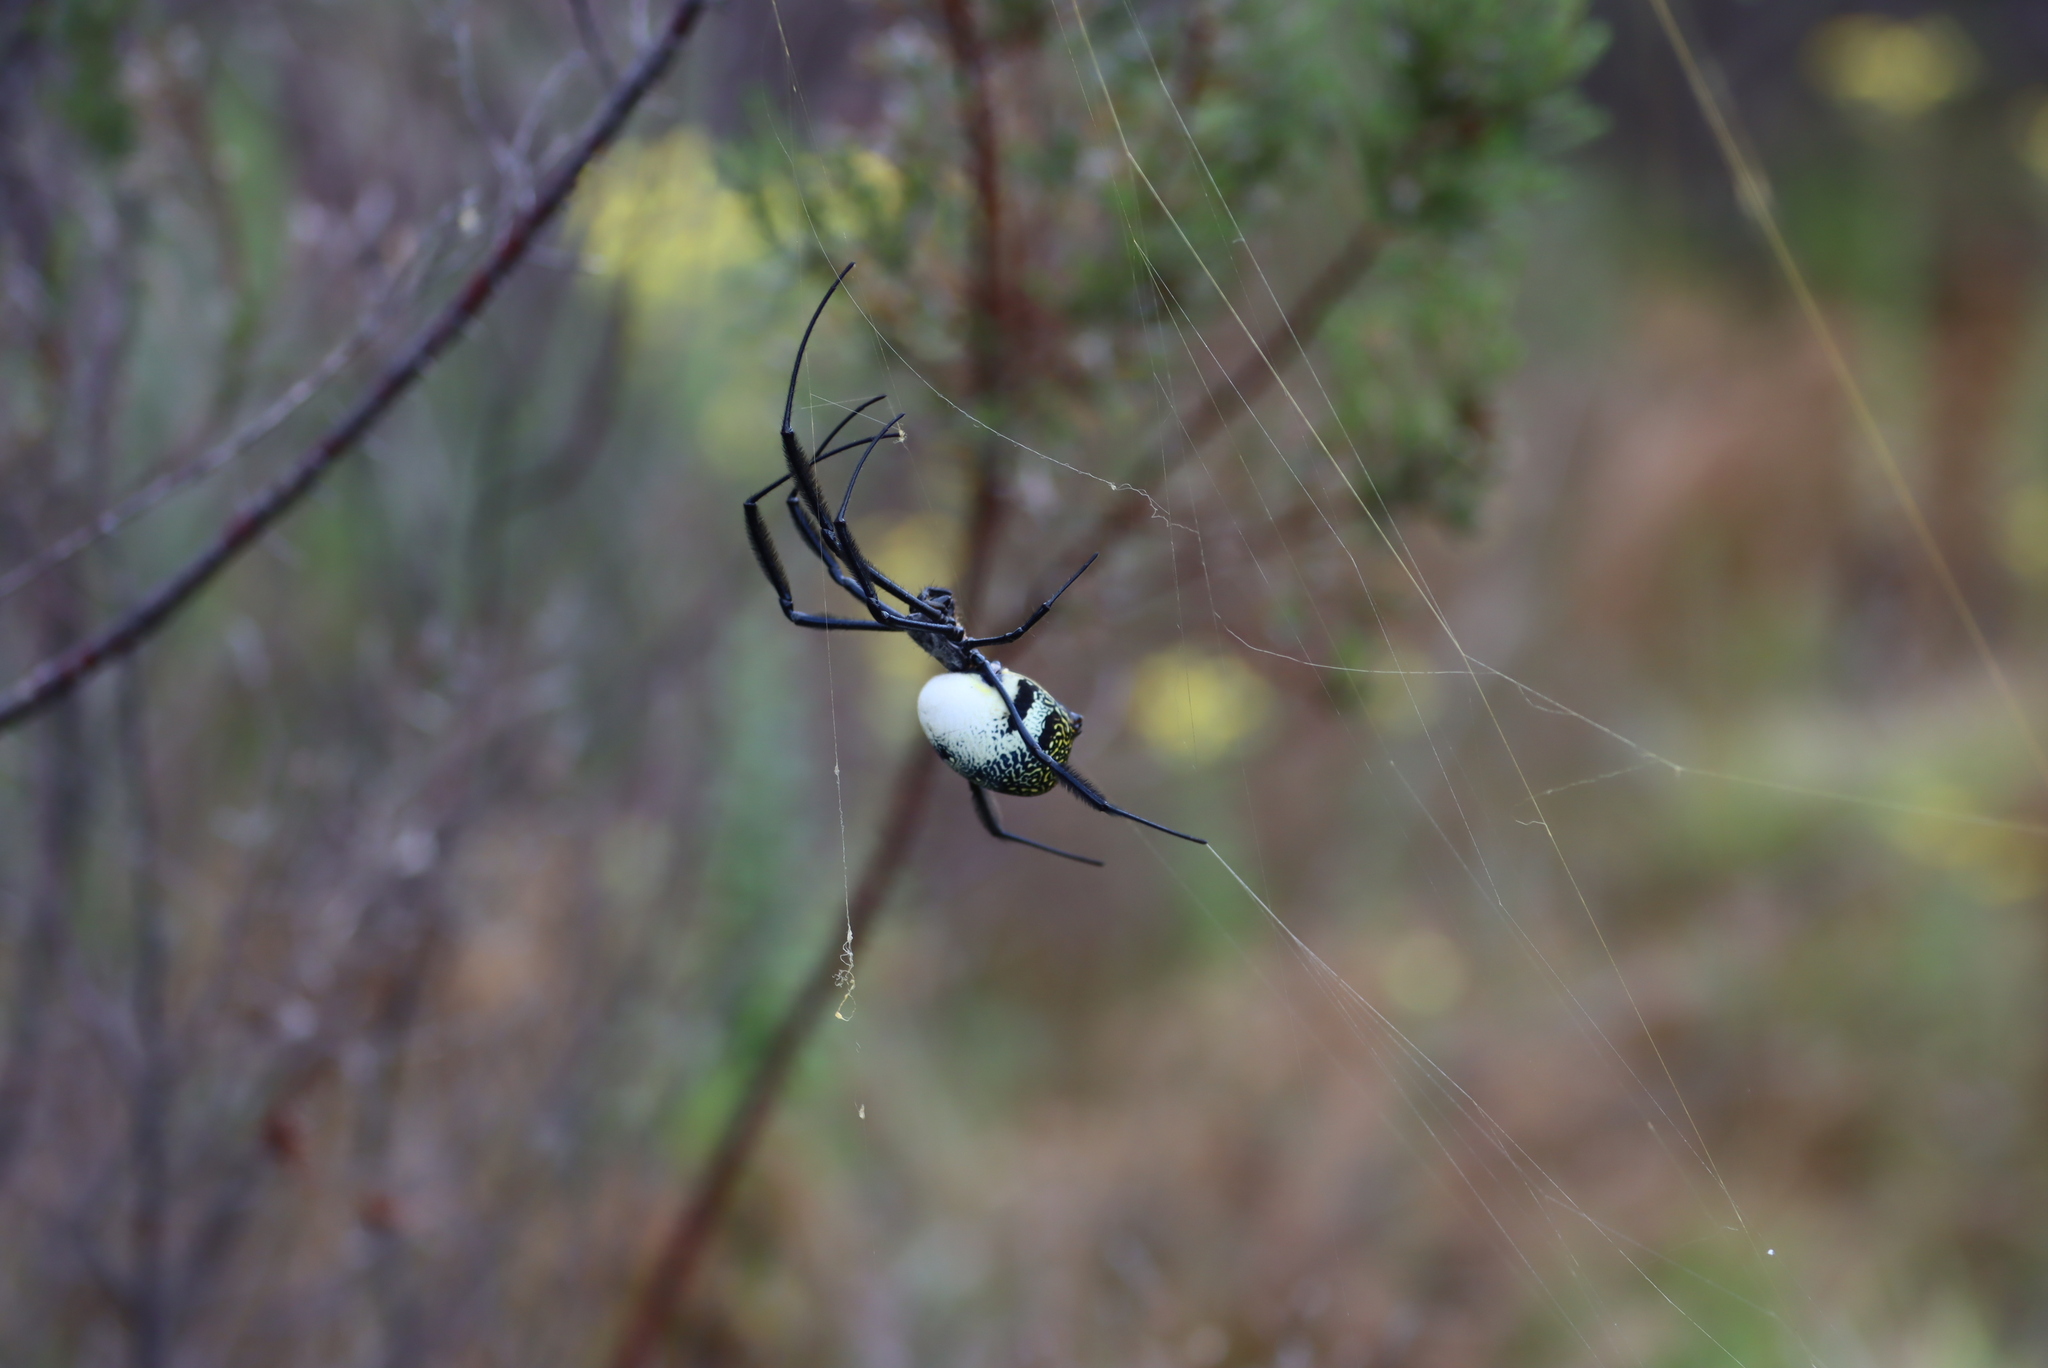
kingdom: Animalia
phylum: Arthropoda
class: Arachnida
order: Araneae
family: Araneidae
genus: Trichonephila
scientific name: Trichonephila fenestrata
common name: Hairy golden orb weaver
